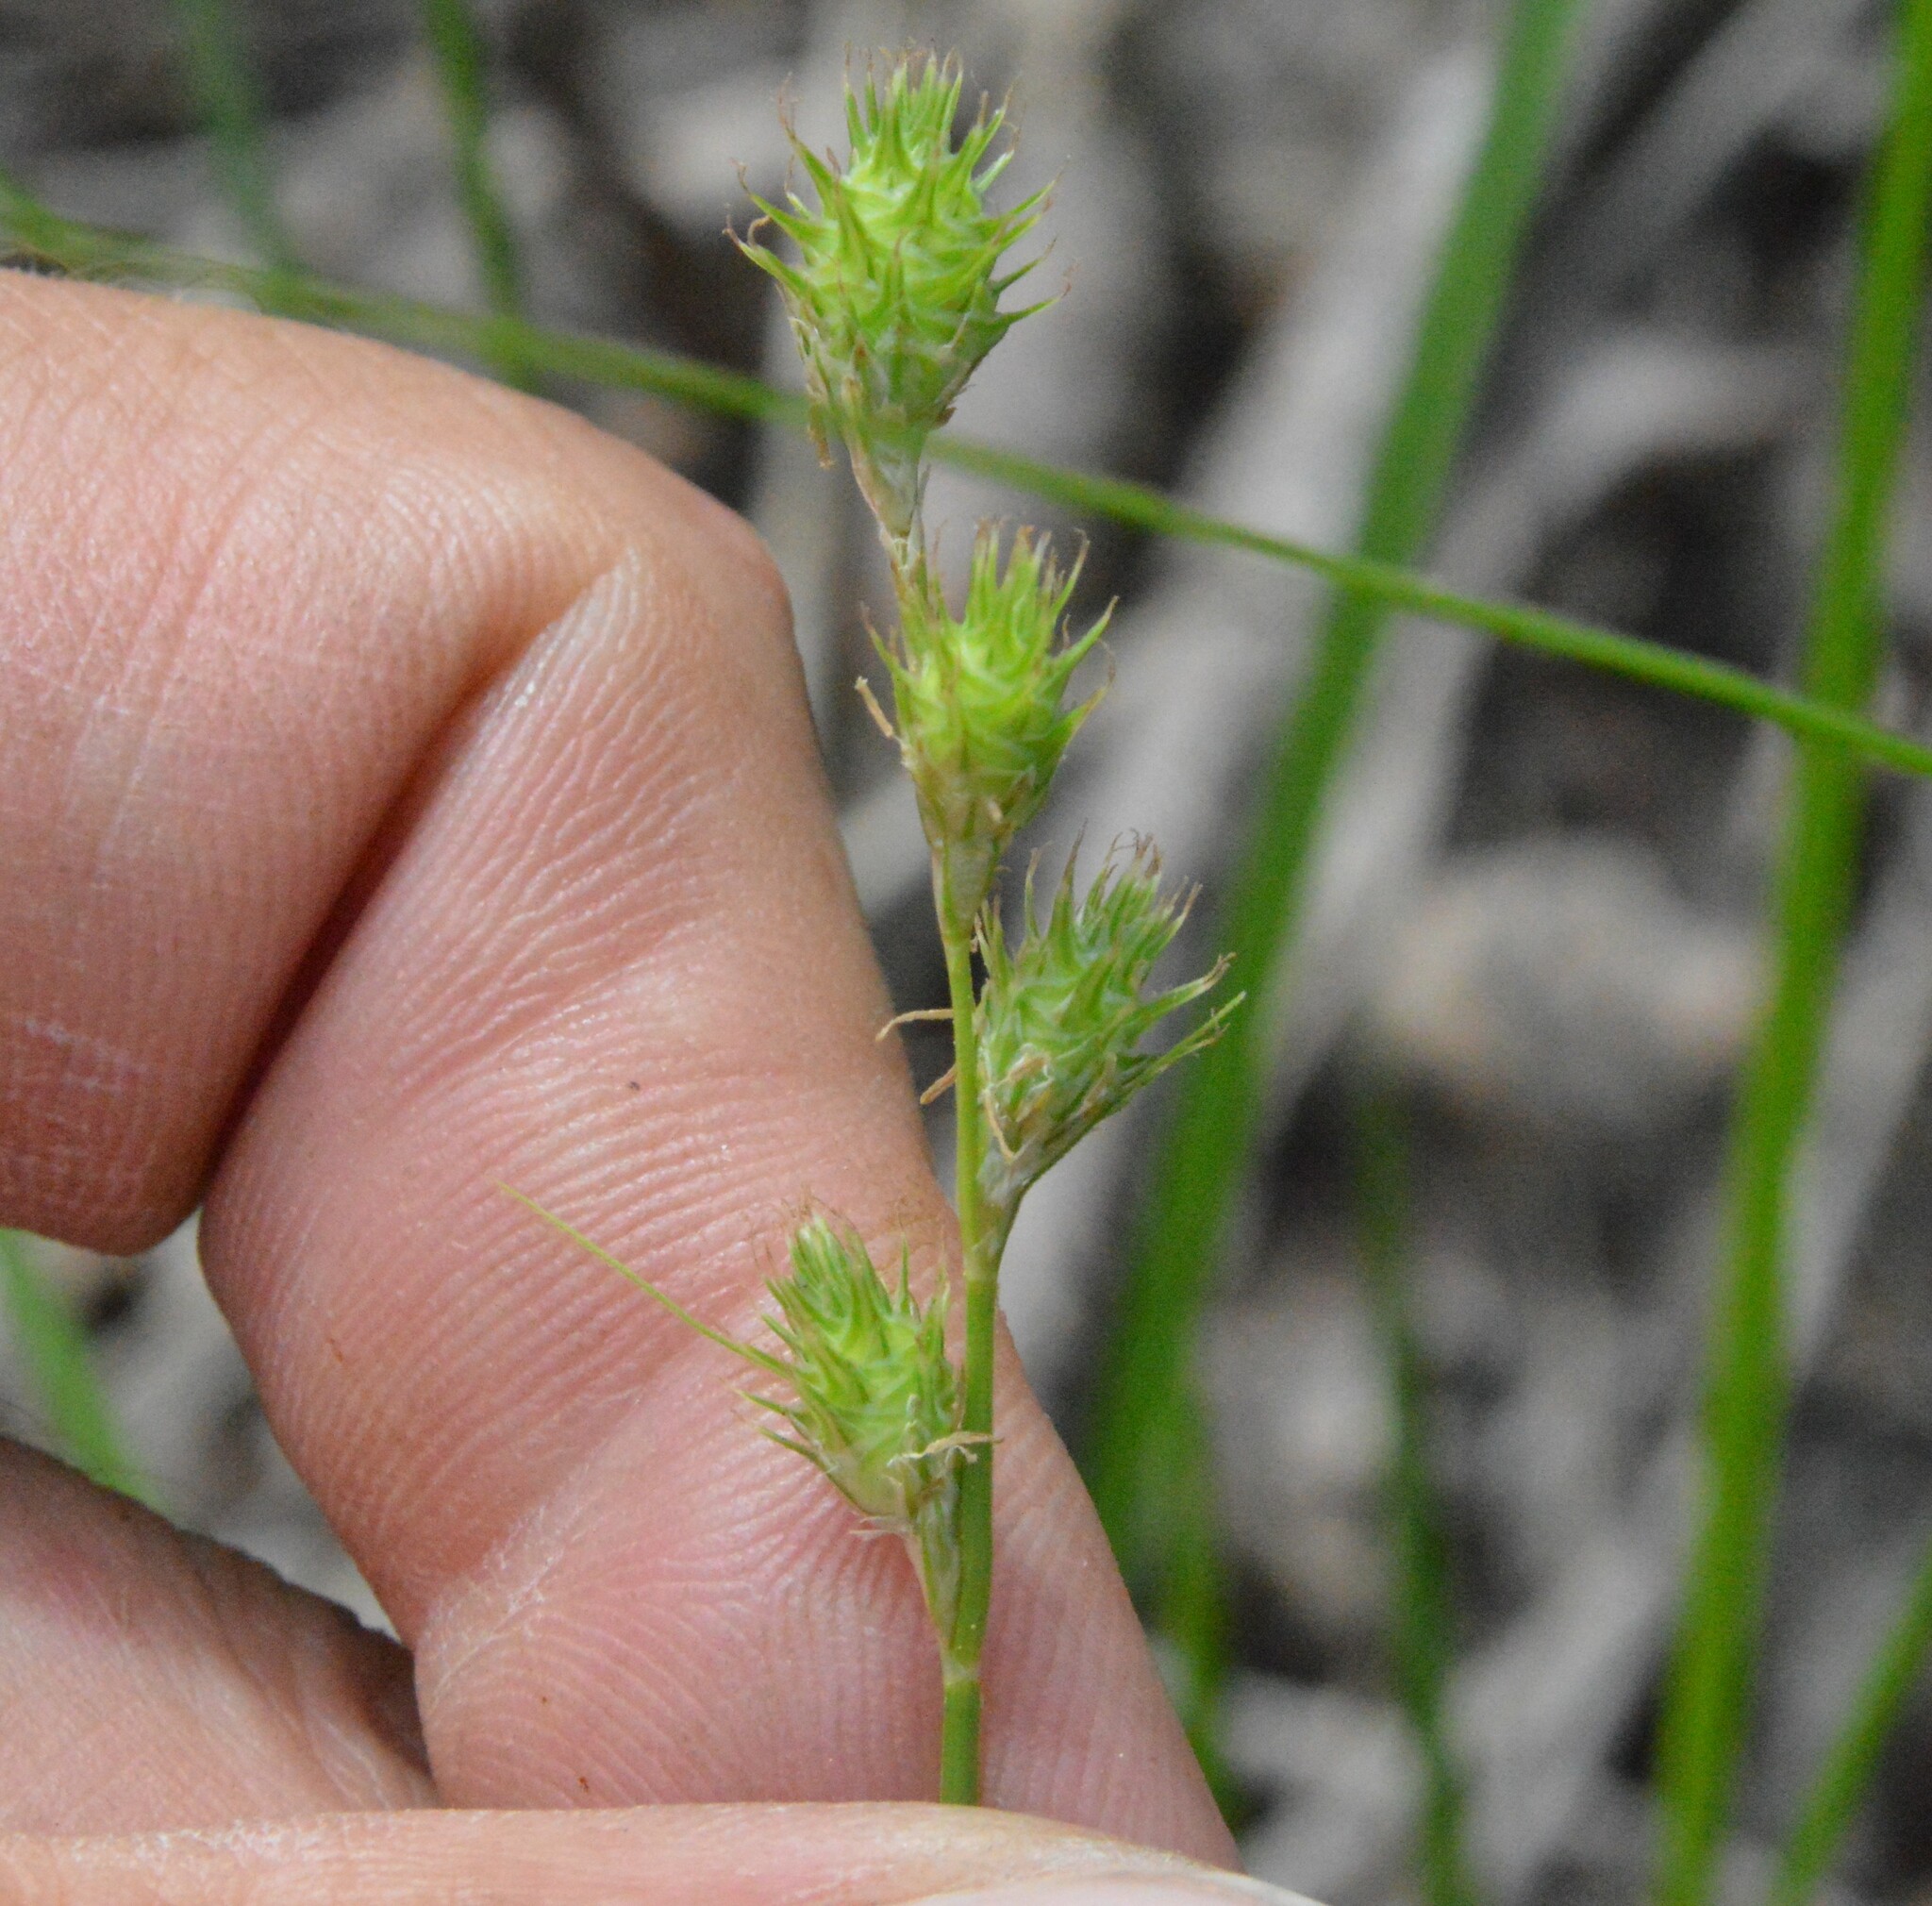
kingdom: Plantae
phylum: Tracheophyta
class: Liliopsida
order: Poales
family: Cyperaceae
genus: Carex
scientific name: Carex reniformis
